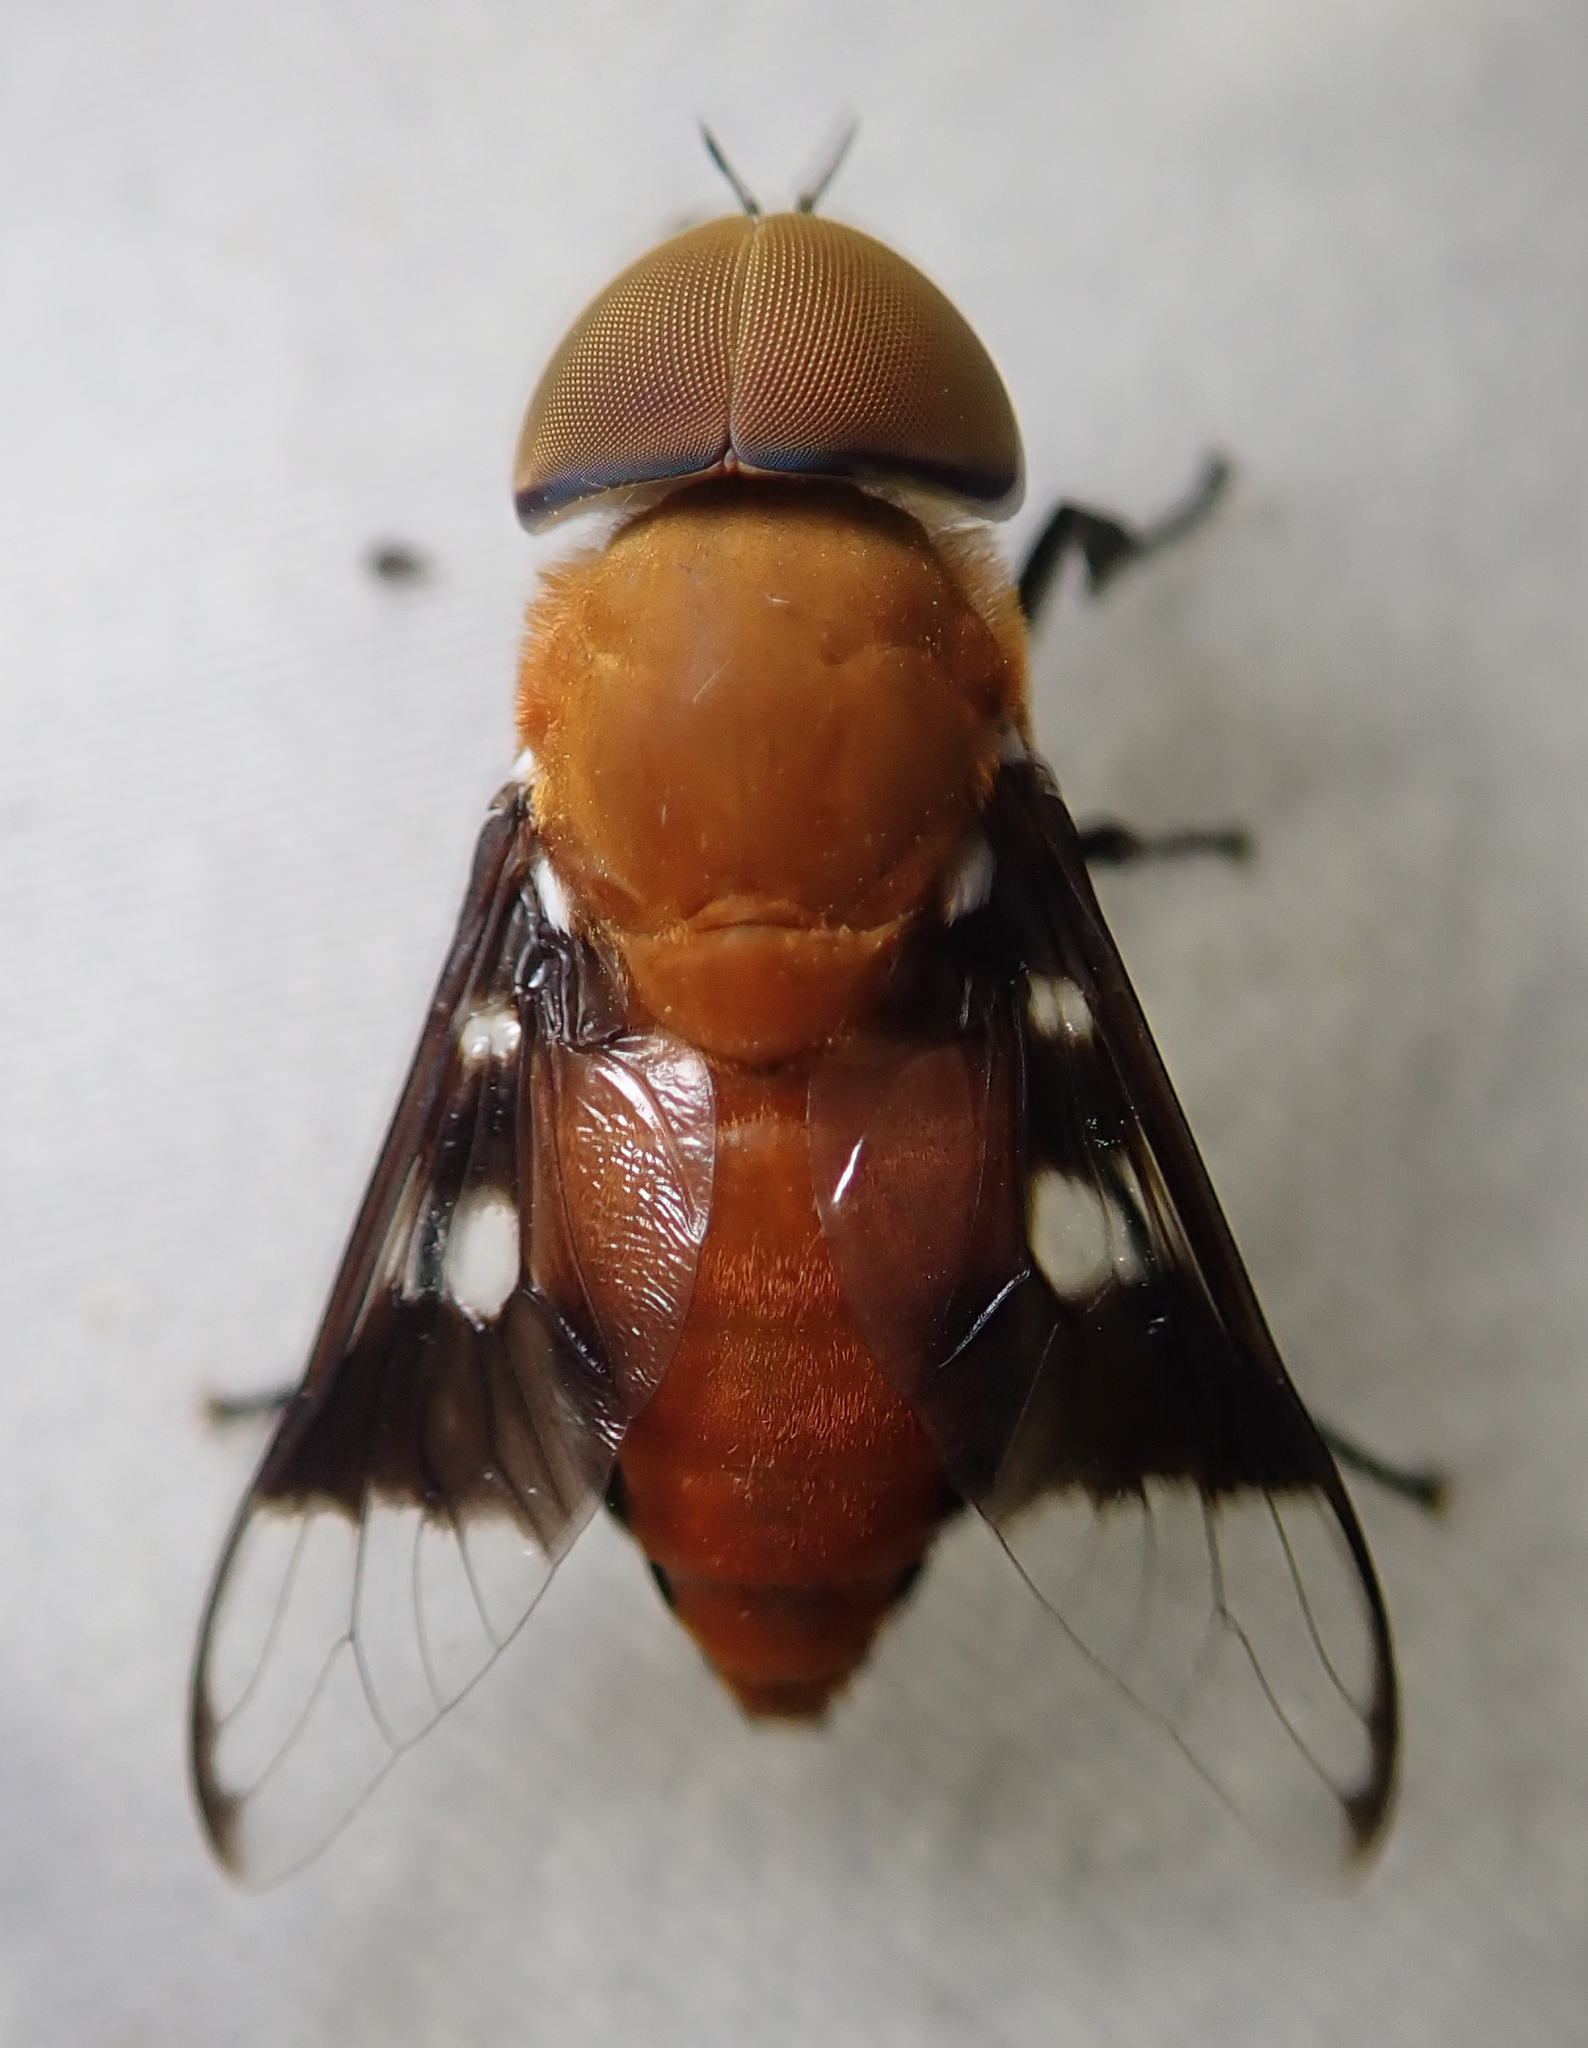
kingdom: Animalia
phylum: Arthropoda
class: Insecta
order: Diptera
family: Tabanidae
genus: Ancala
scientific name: Ancala africana
